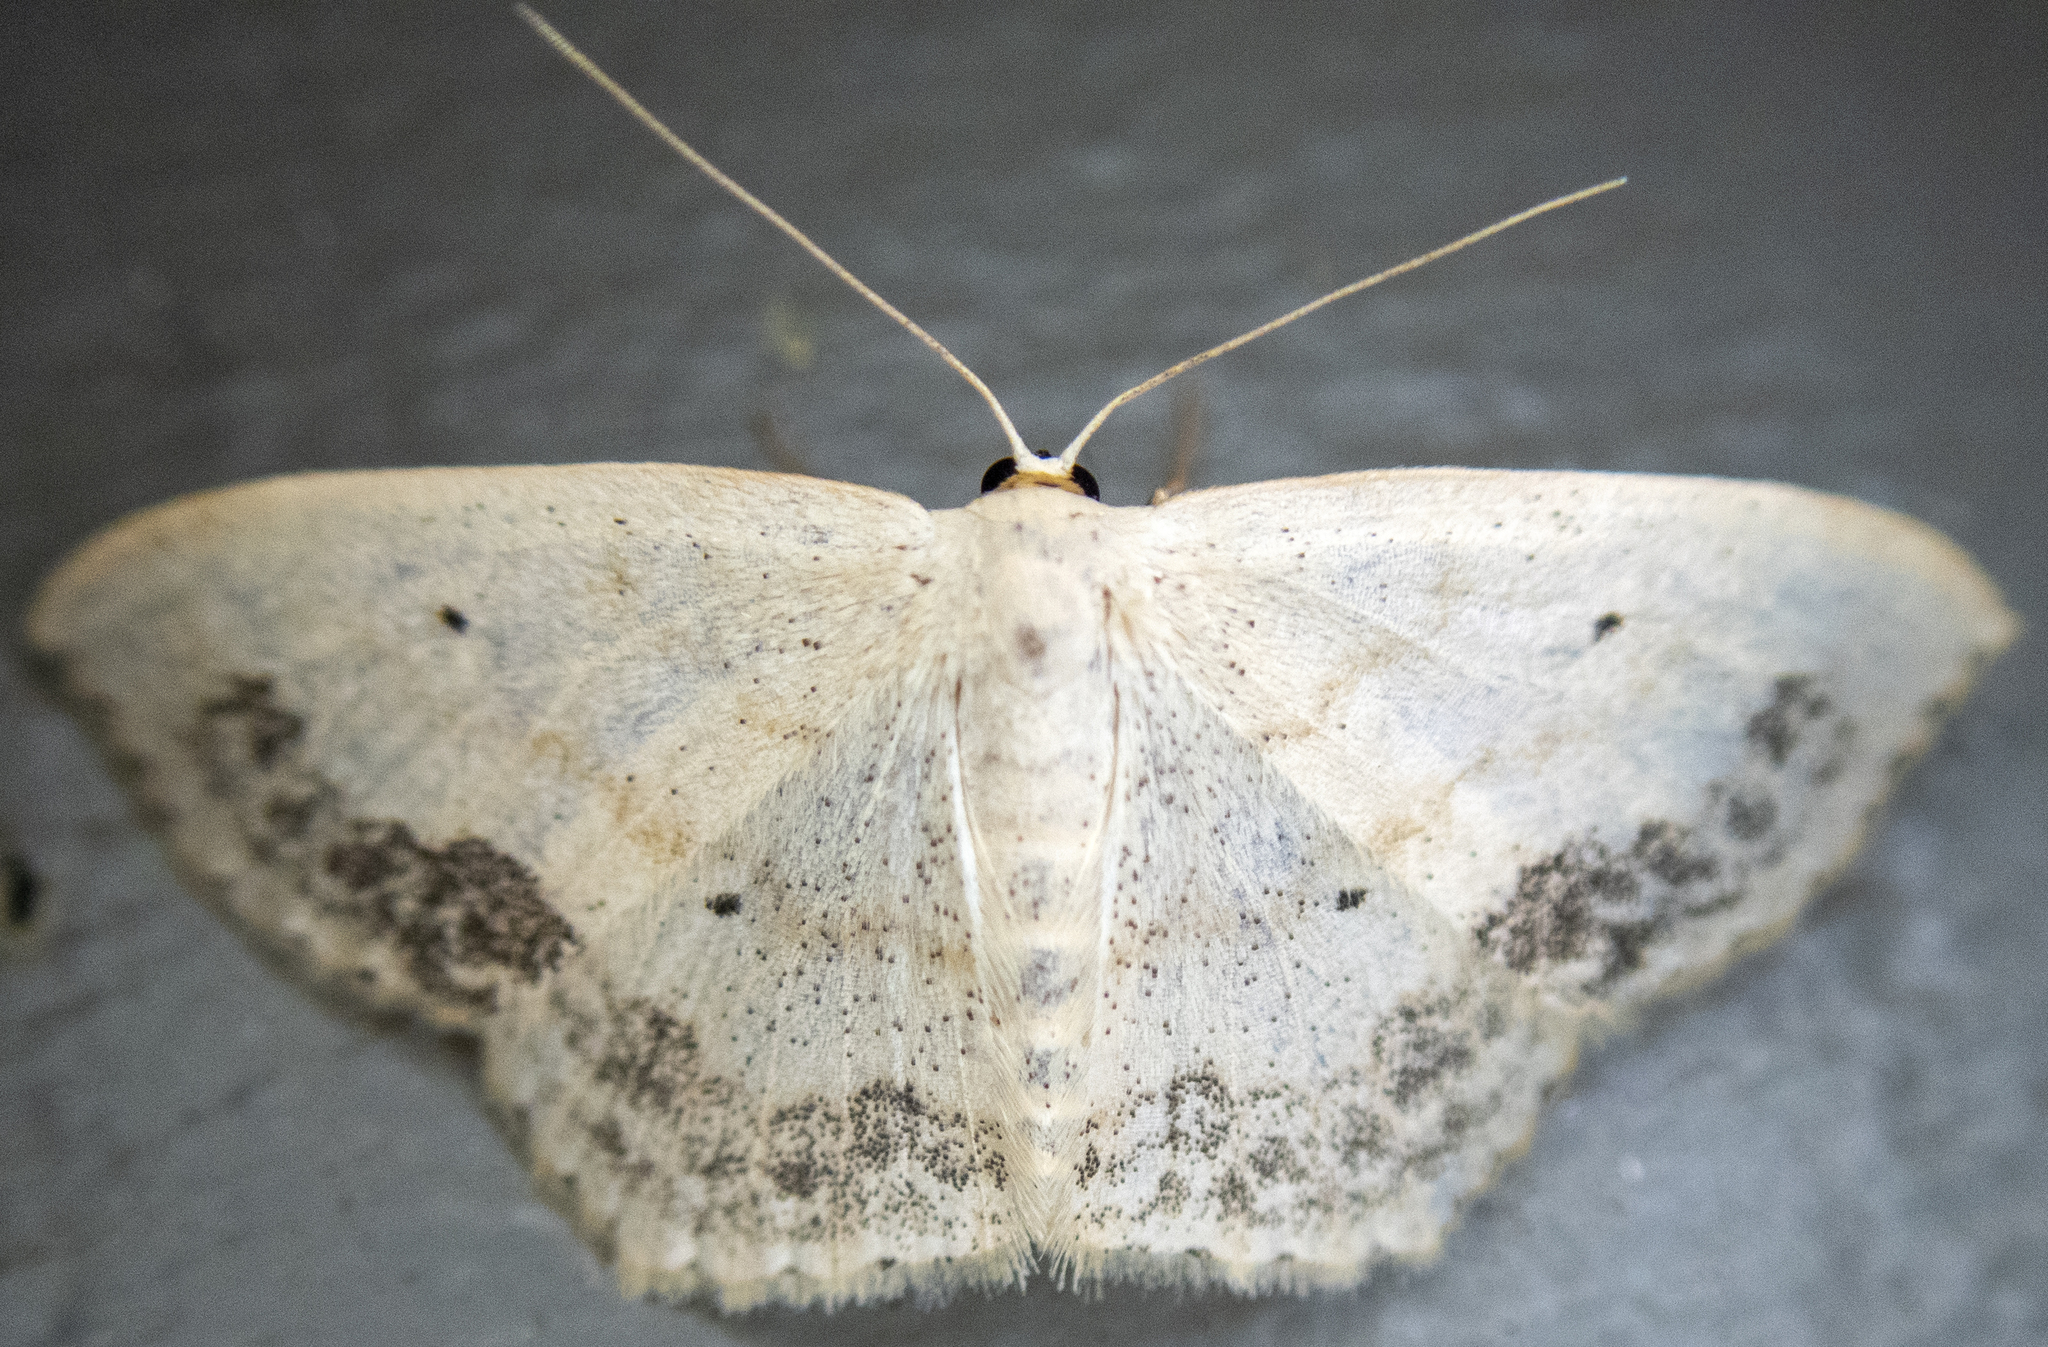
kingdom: Animalia
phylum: Arthropoda
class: Insecta
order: Lepidoptera
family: Geometridae
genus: Scopula
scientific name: Scopula limboundata
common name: Large lace border
